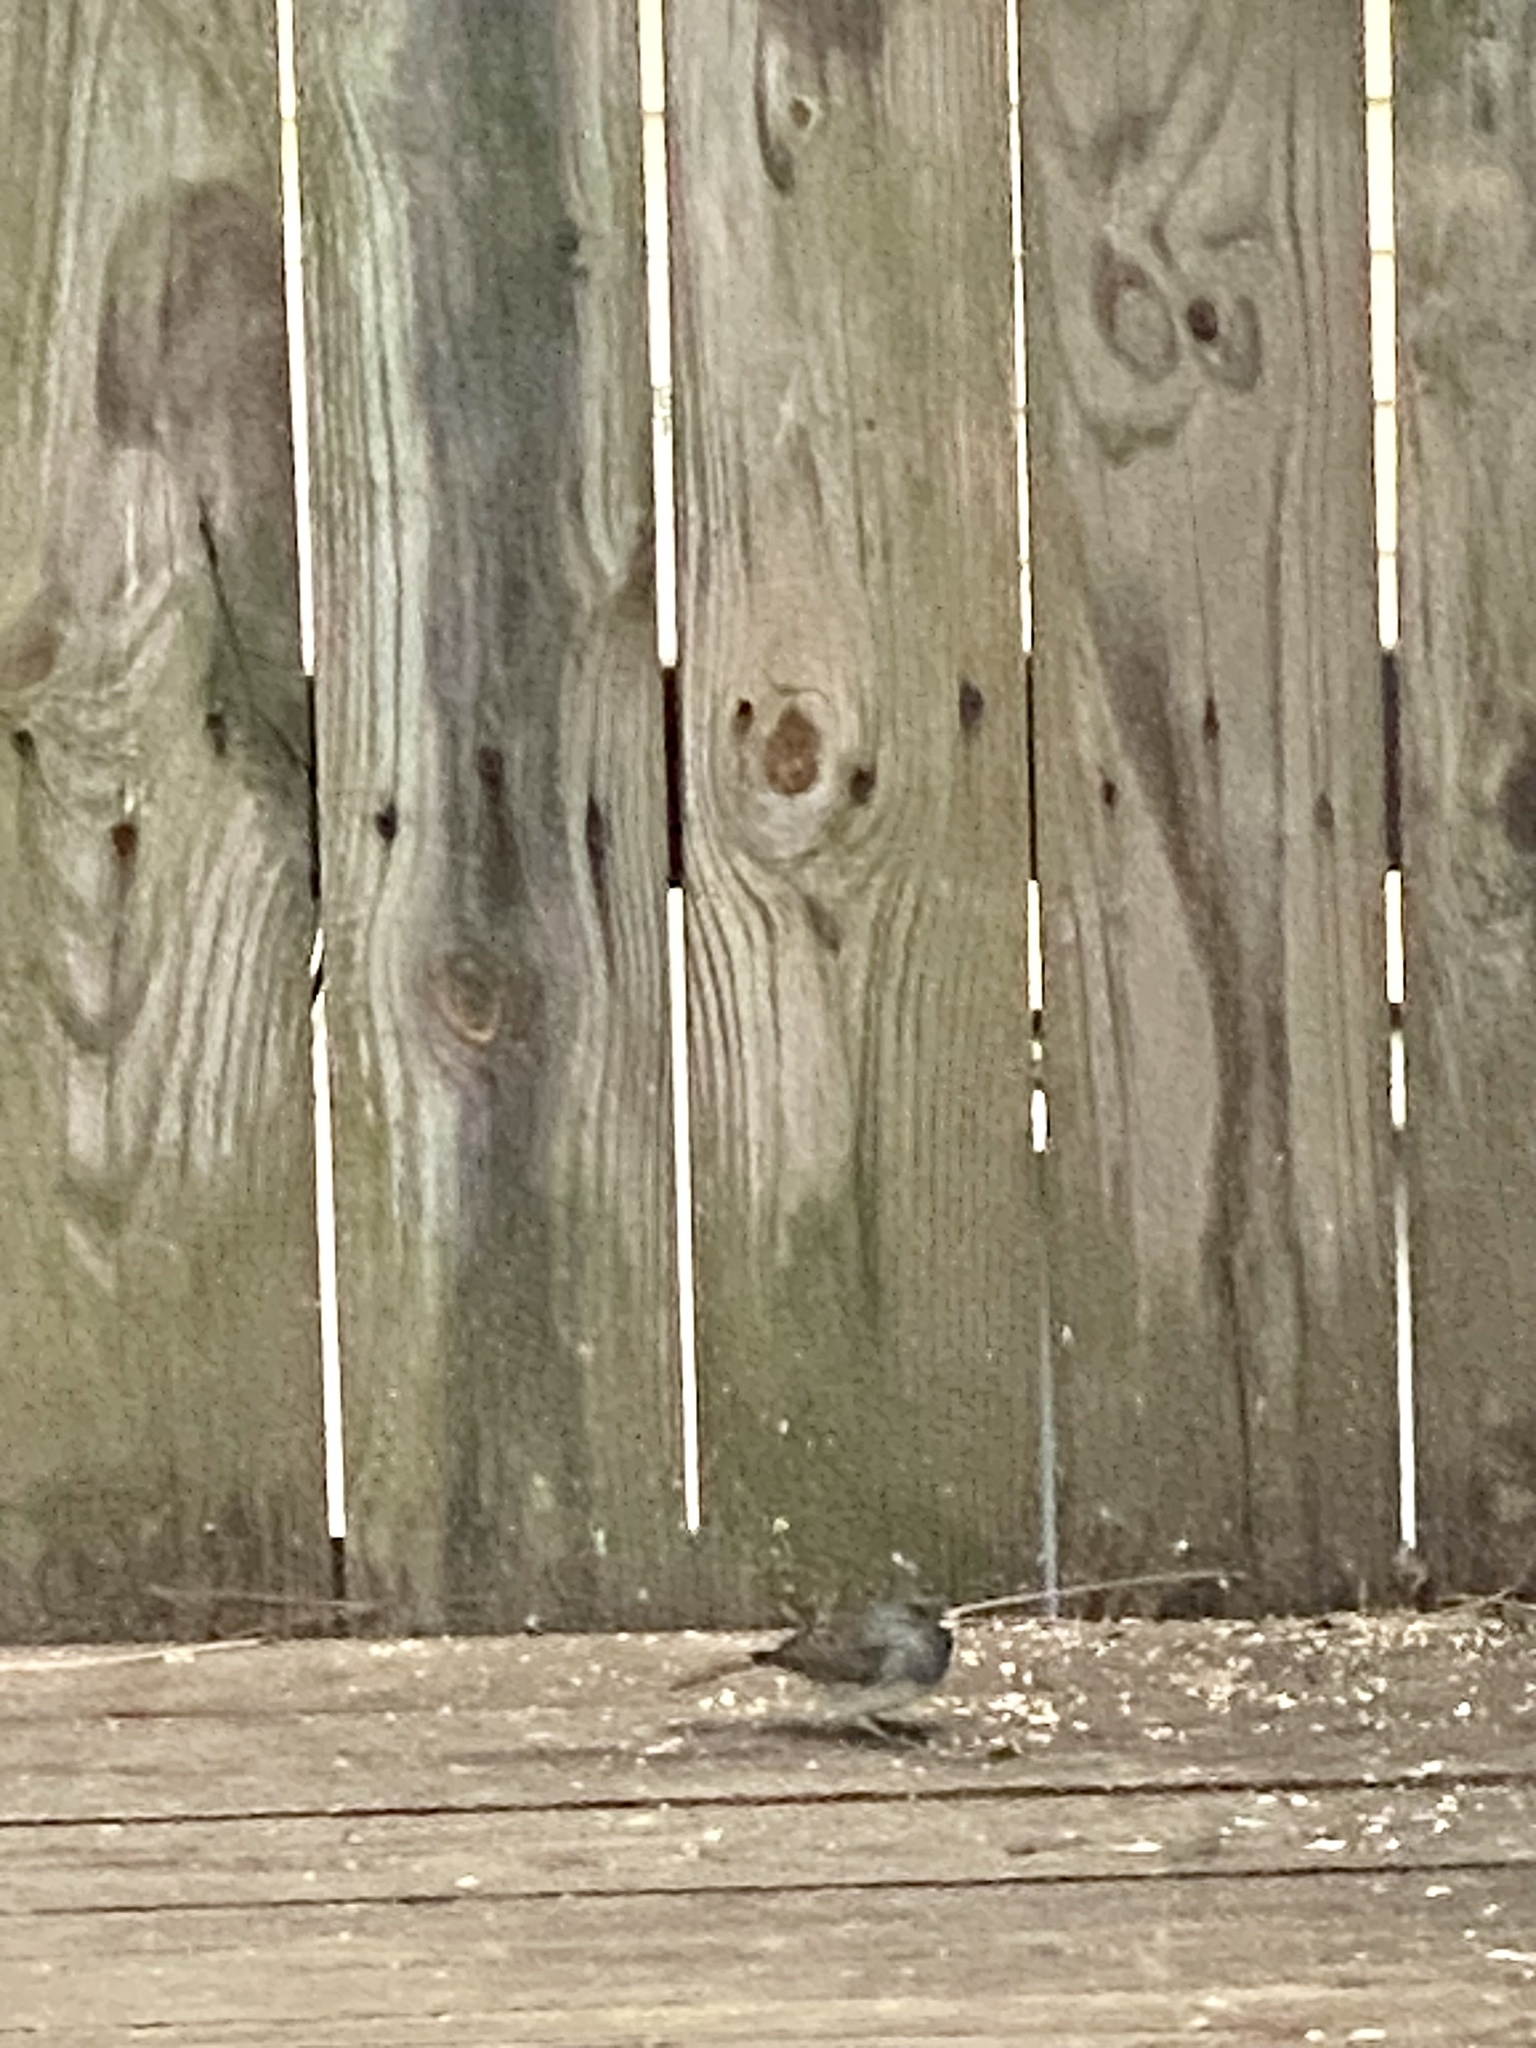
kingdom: Animalia
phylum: Chordata
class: Aves
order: Passeriformes
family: Passerellidae
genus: Junco
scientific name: Junco hyemalis
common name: Dark-eyed junco
